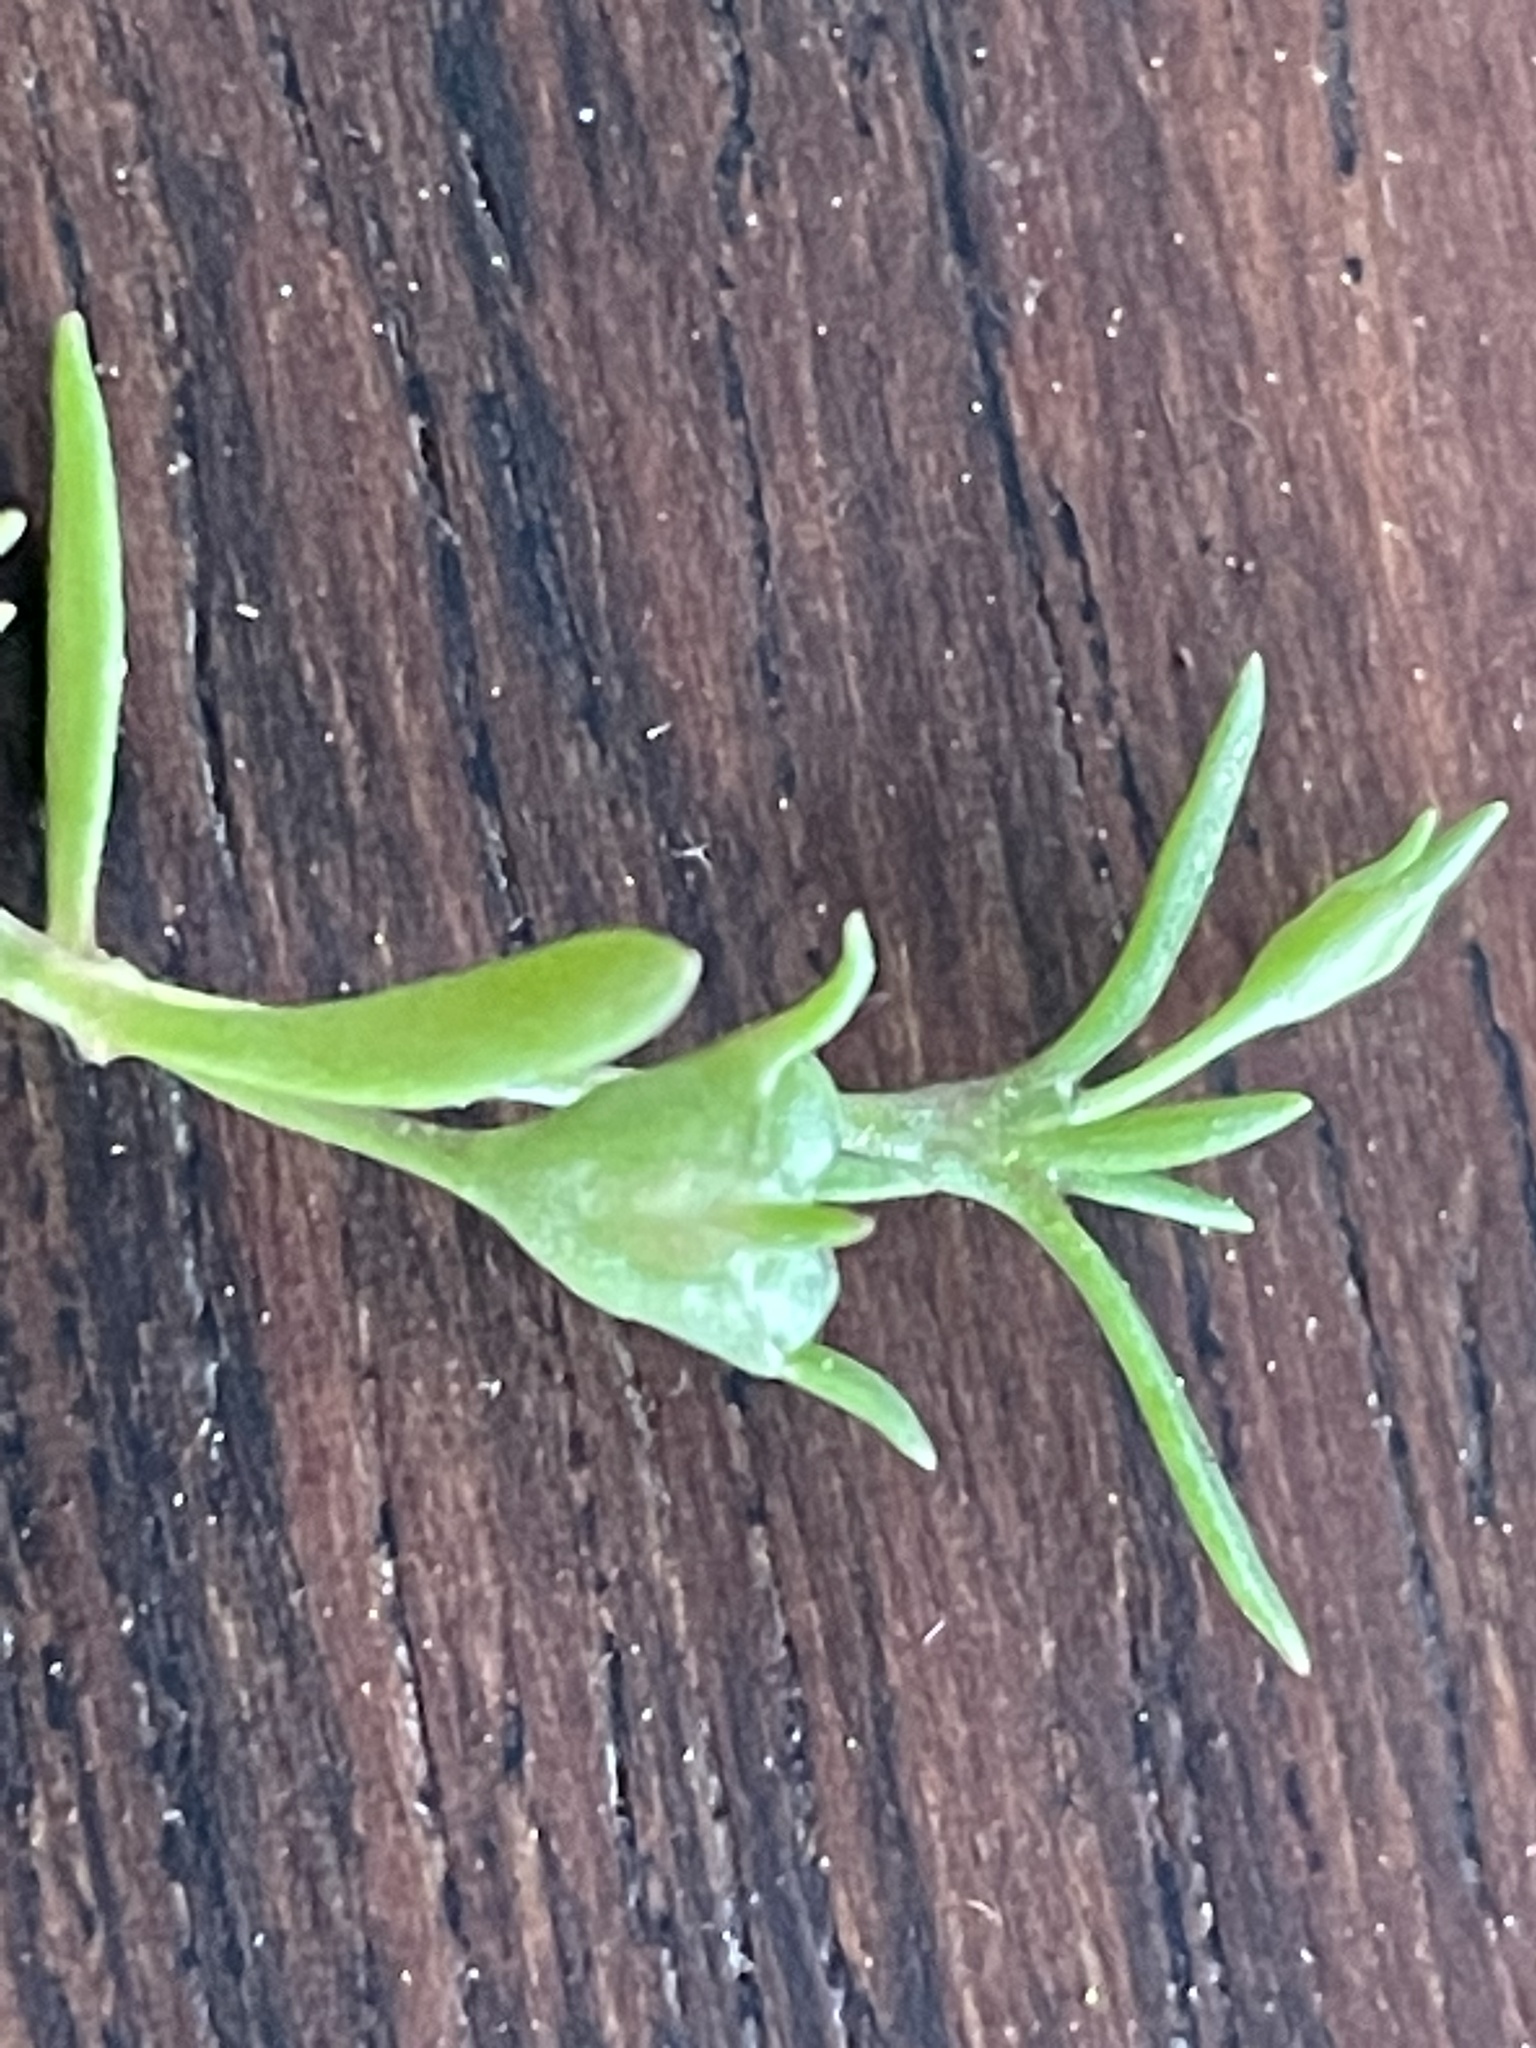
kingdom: Plantae
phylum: Tracheophyta
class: Magnoliopsida
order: Gentianales
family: Rubiaceae
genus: Houstonia
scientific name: Houstonia rosea
